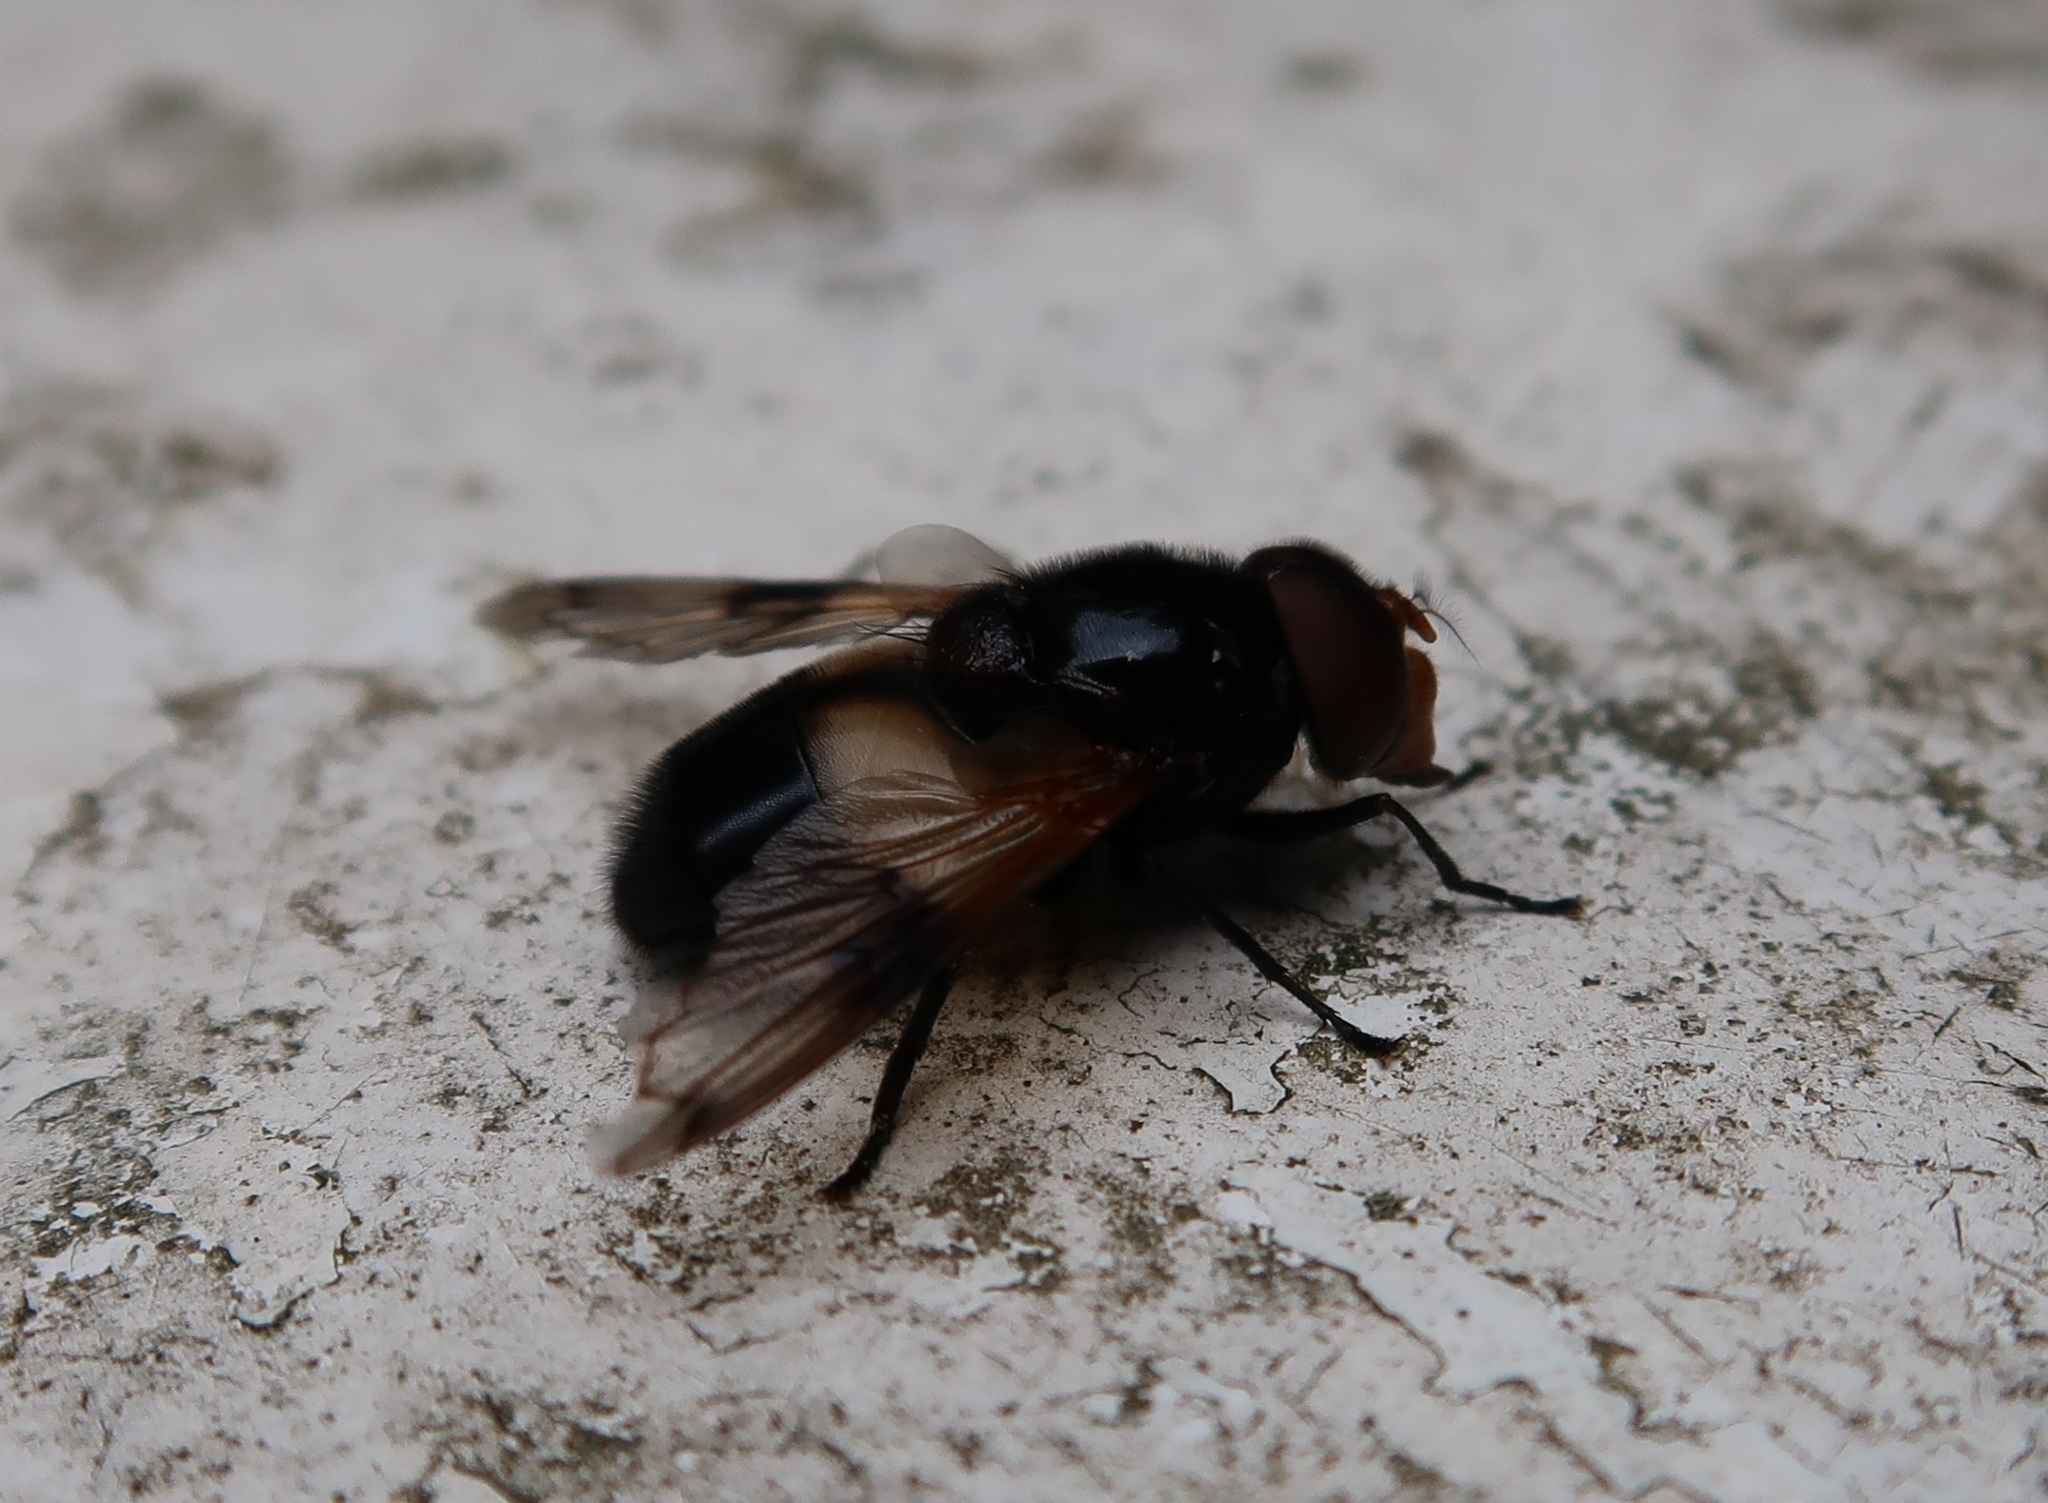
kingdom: Animalia
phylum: Arthropoda
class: Insecta
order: Diptera
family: Syrphidae
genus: Volucella
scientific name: Volucella pellucens
